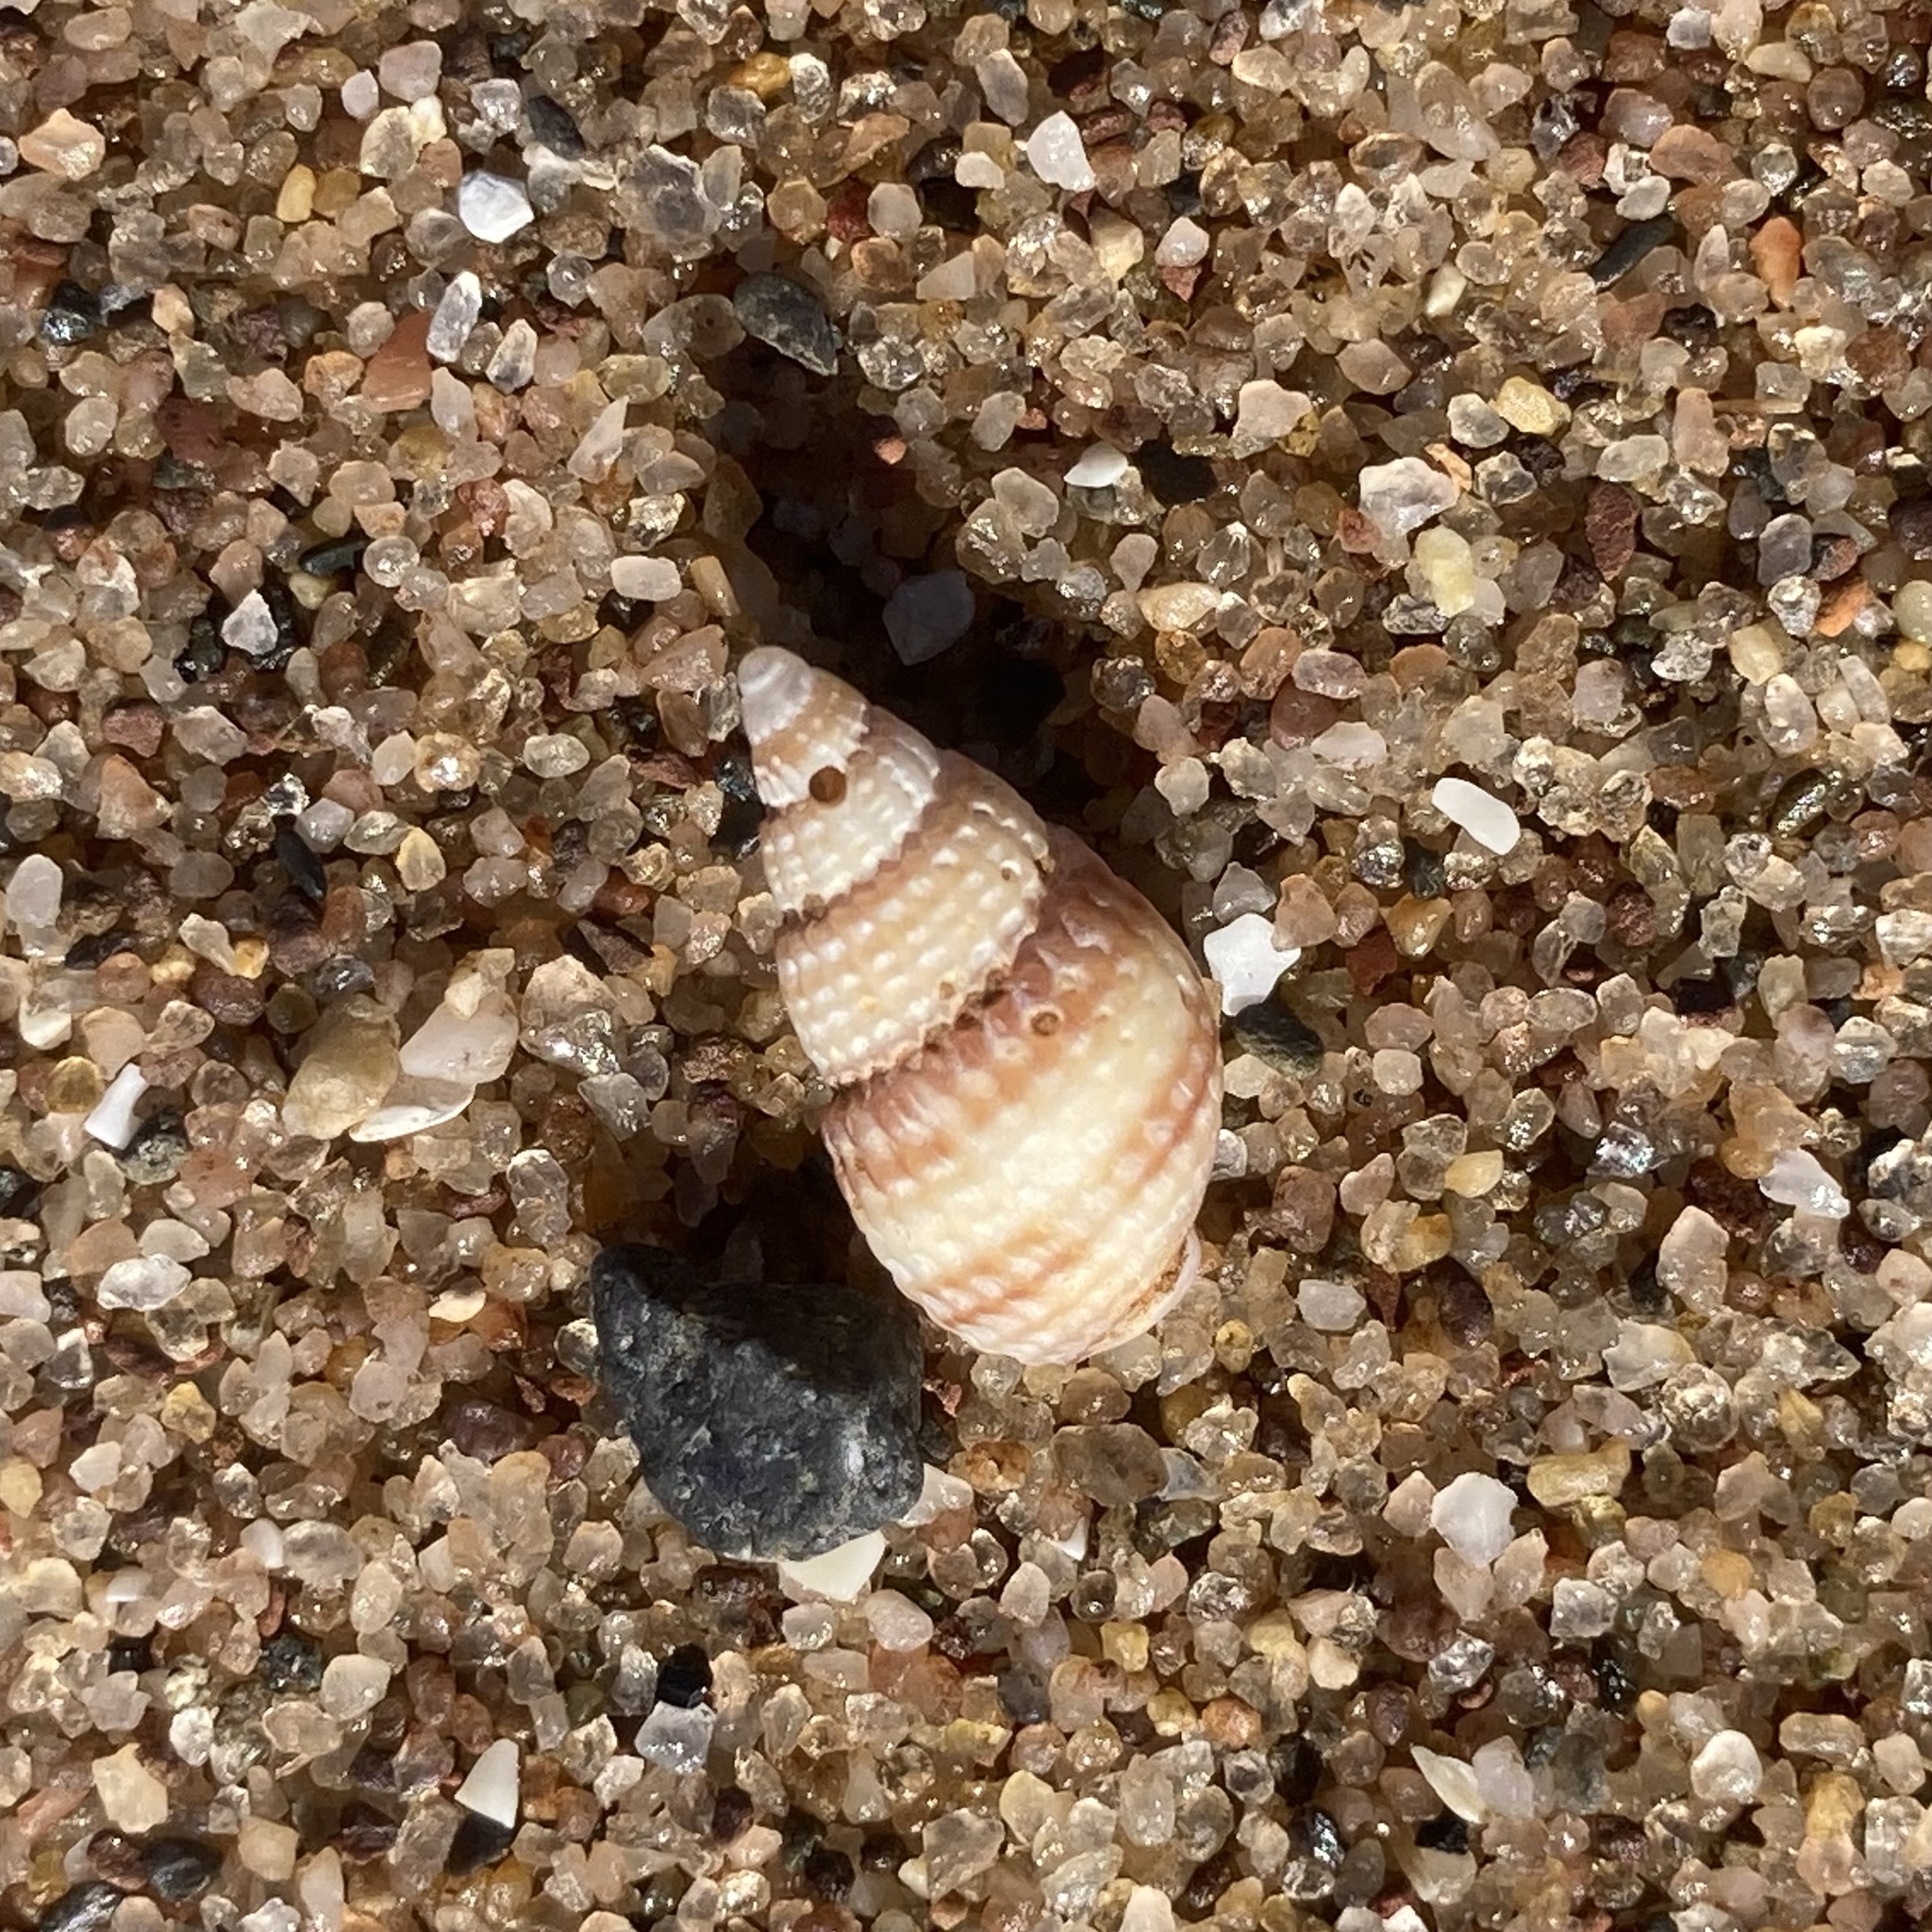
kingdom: Animalia
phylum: Mollusca
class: Gastropoda
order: Neogastropoda
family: Nassariidae
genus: Ilyanassa
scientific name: Ilyanassa trivittata
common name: Three-line mudsnail
